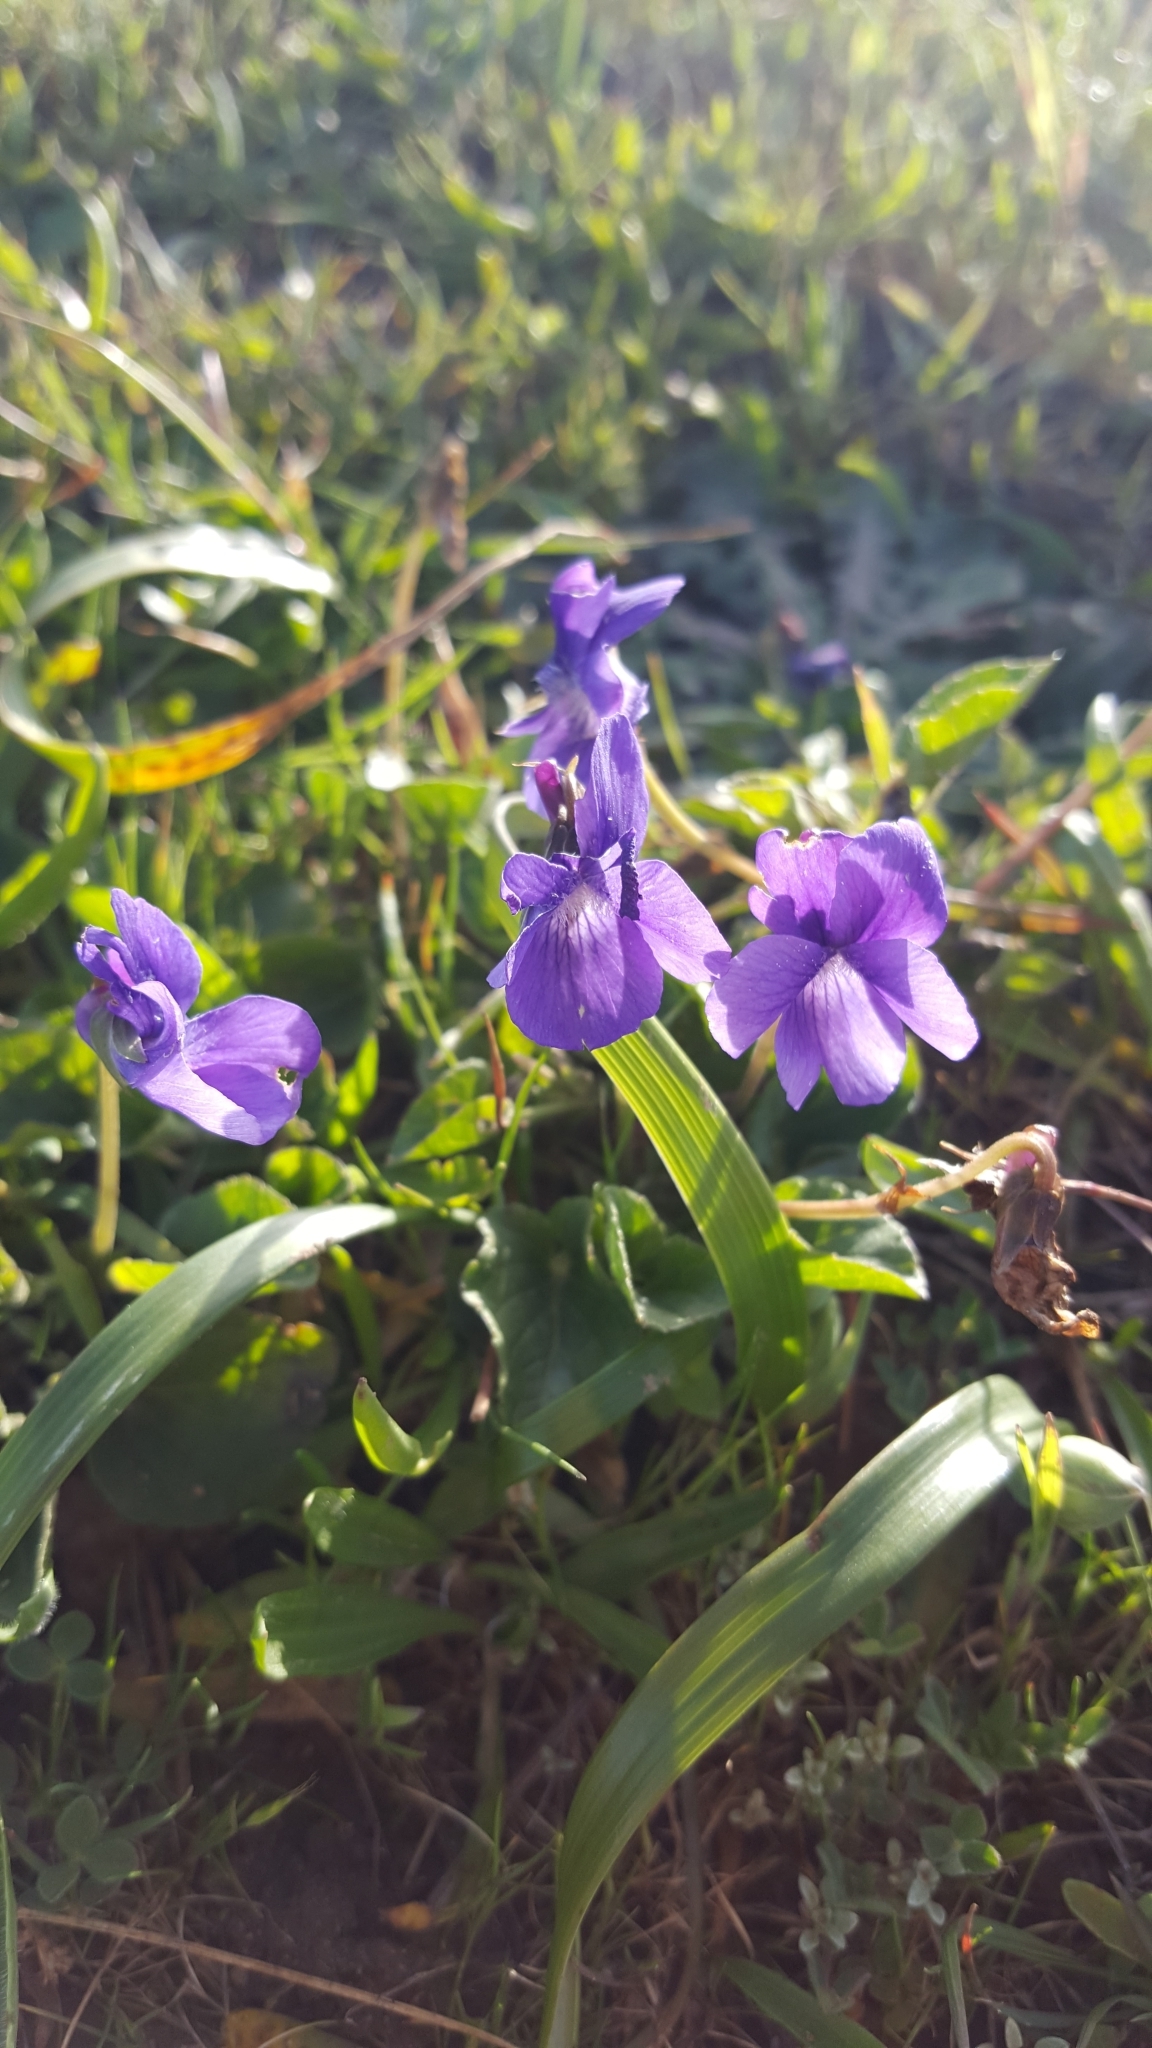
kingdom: Plantae
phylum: Tracheophyta
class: Magnoliopsida
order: Malpighiales
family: Violaceae
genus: Viola
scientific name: Viola adunca
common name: Sand violet
